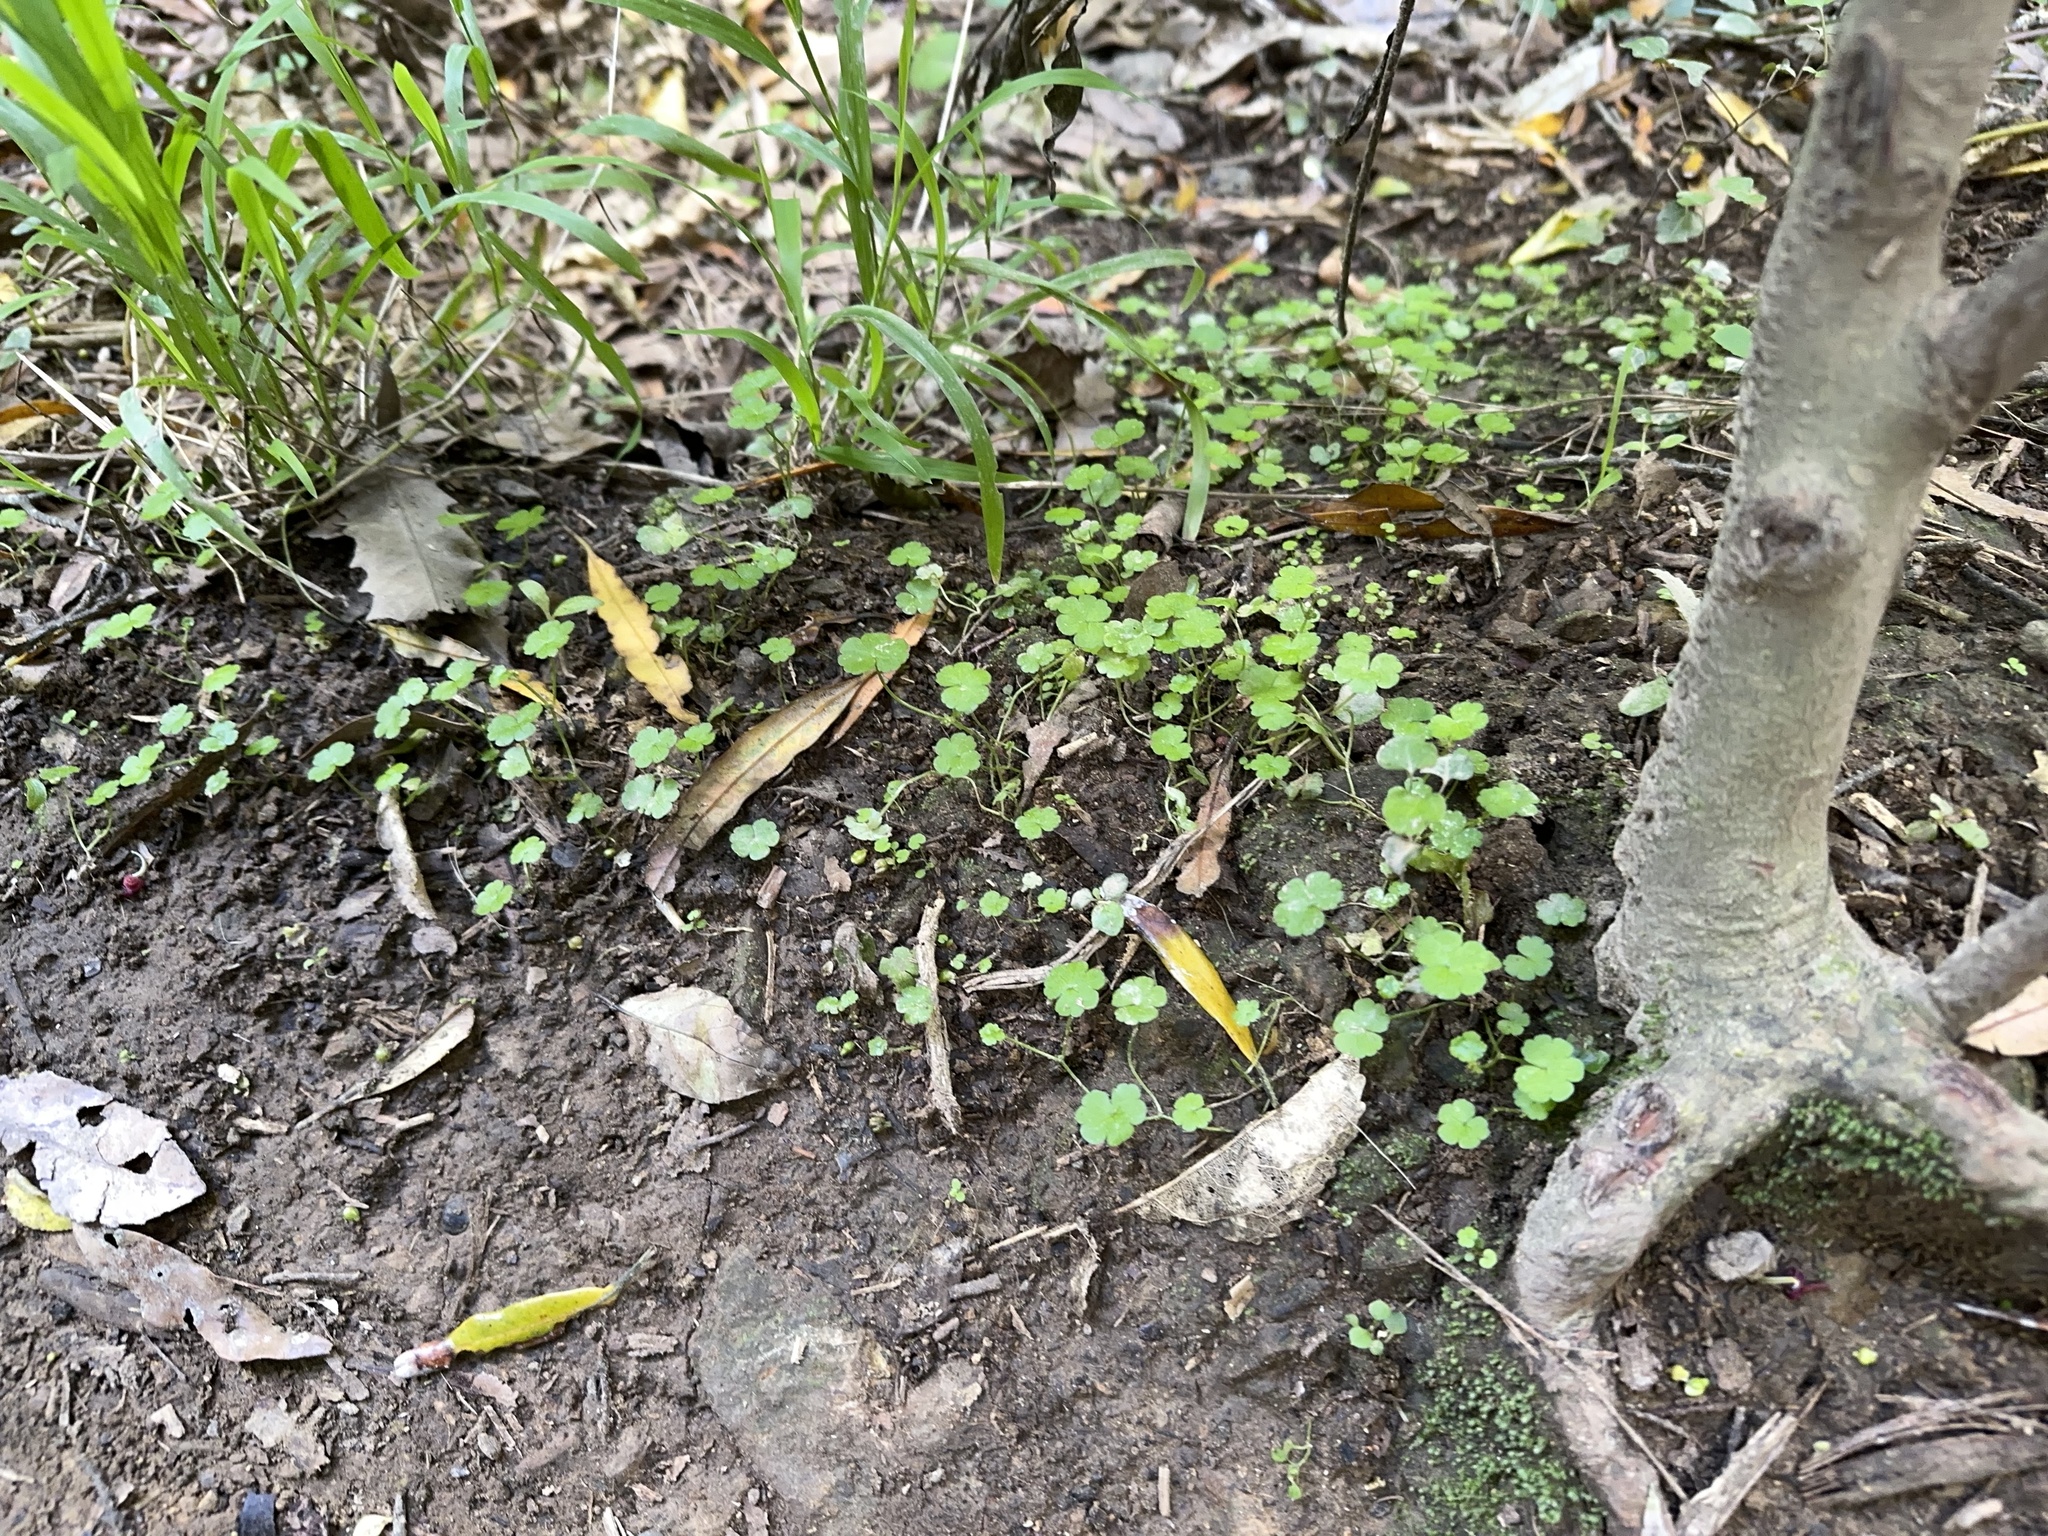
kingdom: Plantae
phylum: Tracheophyta
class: Magnoliopsida
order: Apiales
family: Araliaceae
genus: Hydrocotyle
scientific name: Hydrocotyle heteromeria
